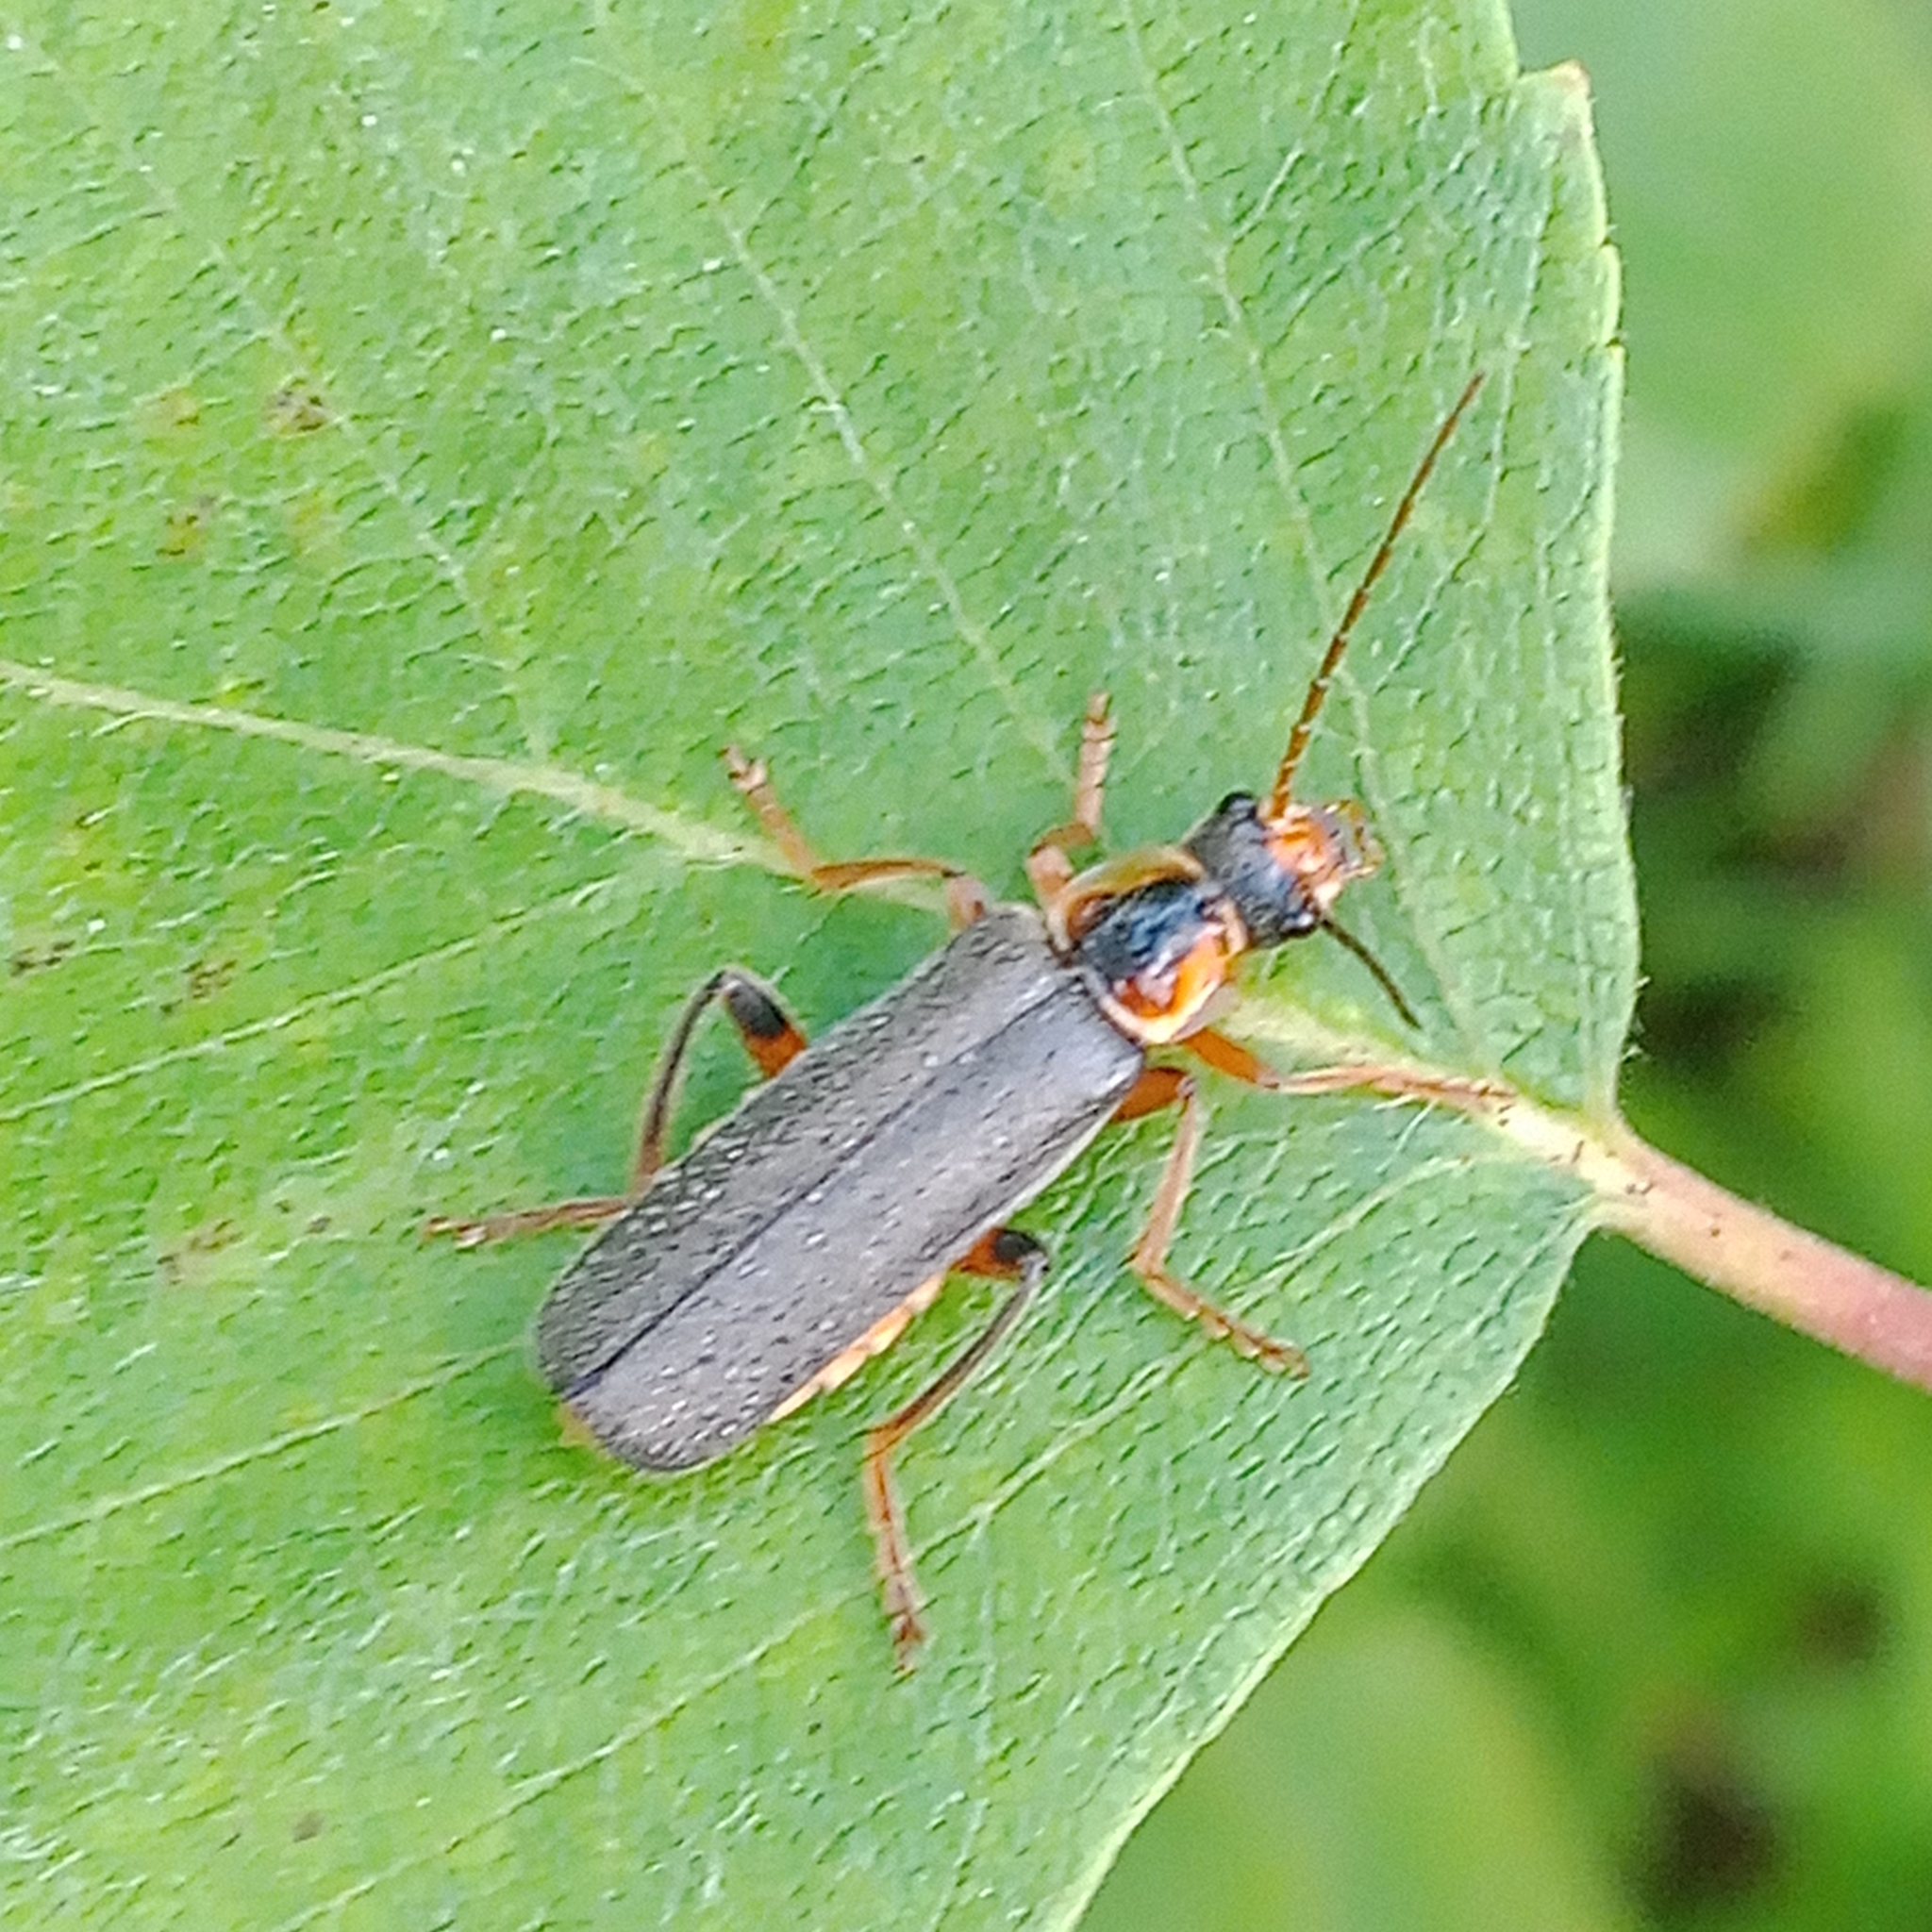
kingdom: Animalia
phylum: Arthropoda
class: Insecta
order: Coleoptera
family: Cantharidae
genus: Cantharis
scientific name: Cantharis nigricans
